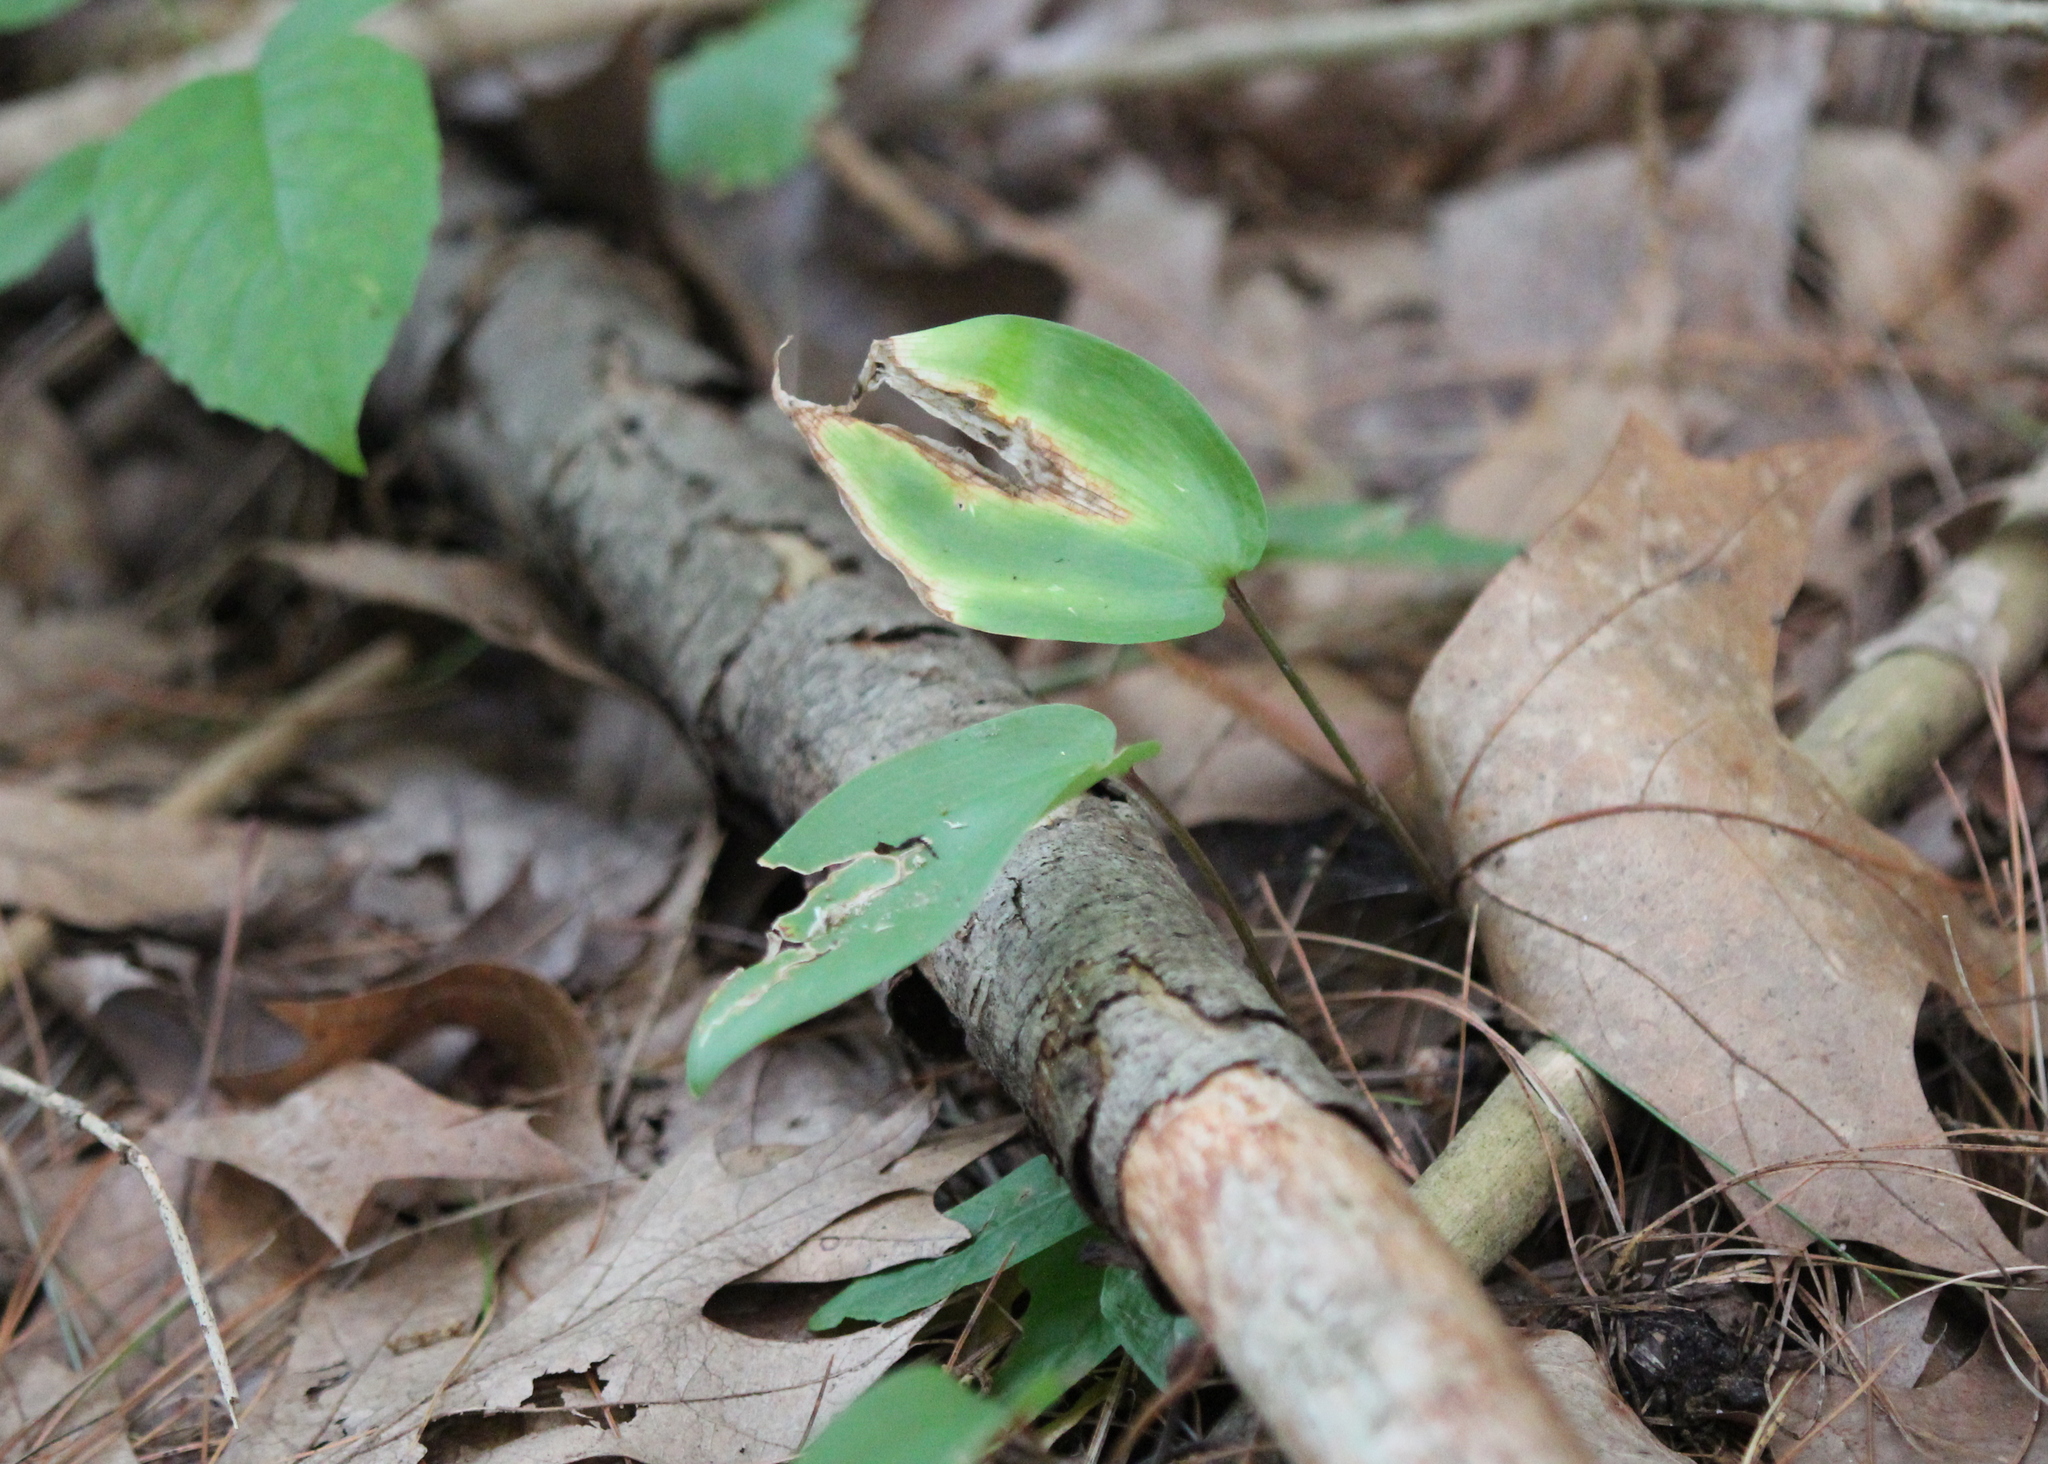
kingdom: Plantae
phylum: Tracheophyta
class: Liliopsida
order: Asparagales
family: Asparagaceae
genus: Maianthemum
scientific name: Maianthemum canadense
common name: False lily-of-the-valley
